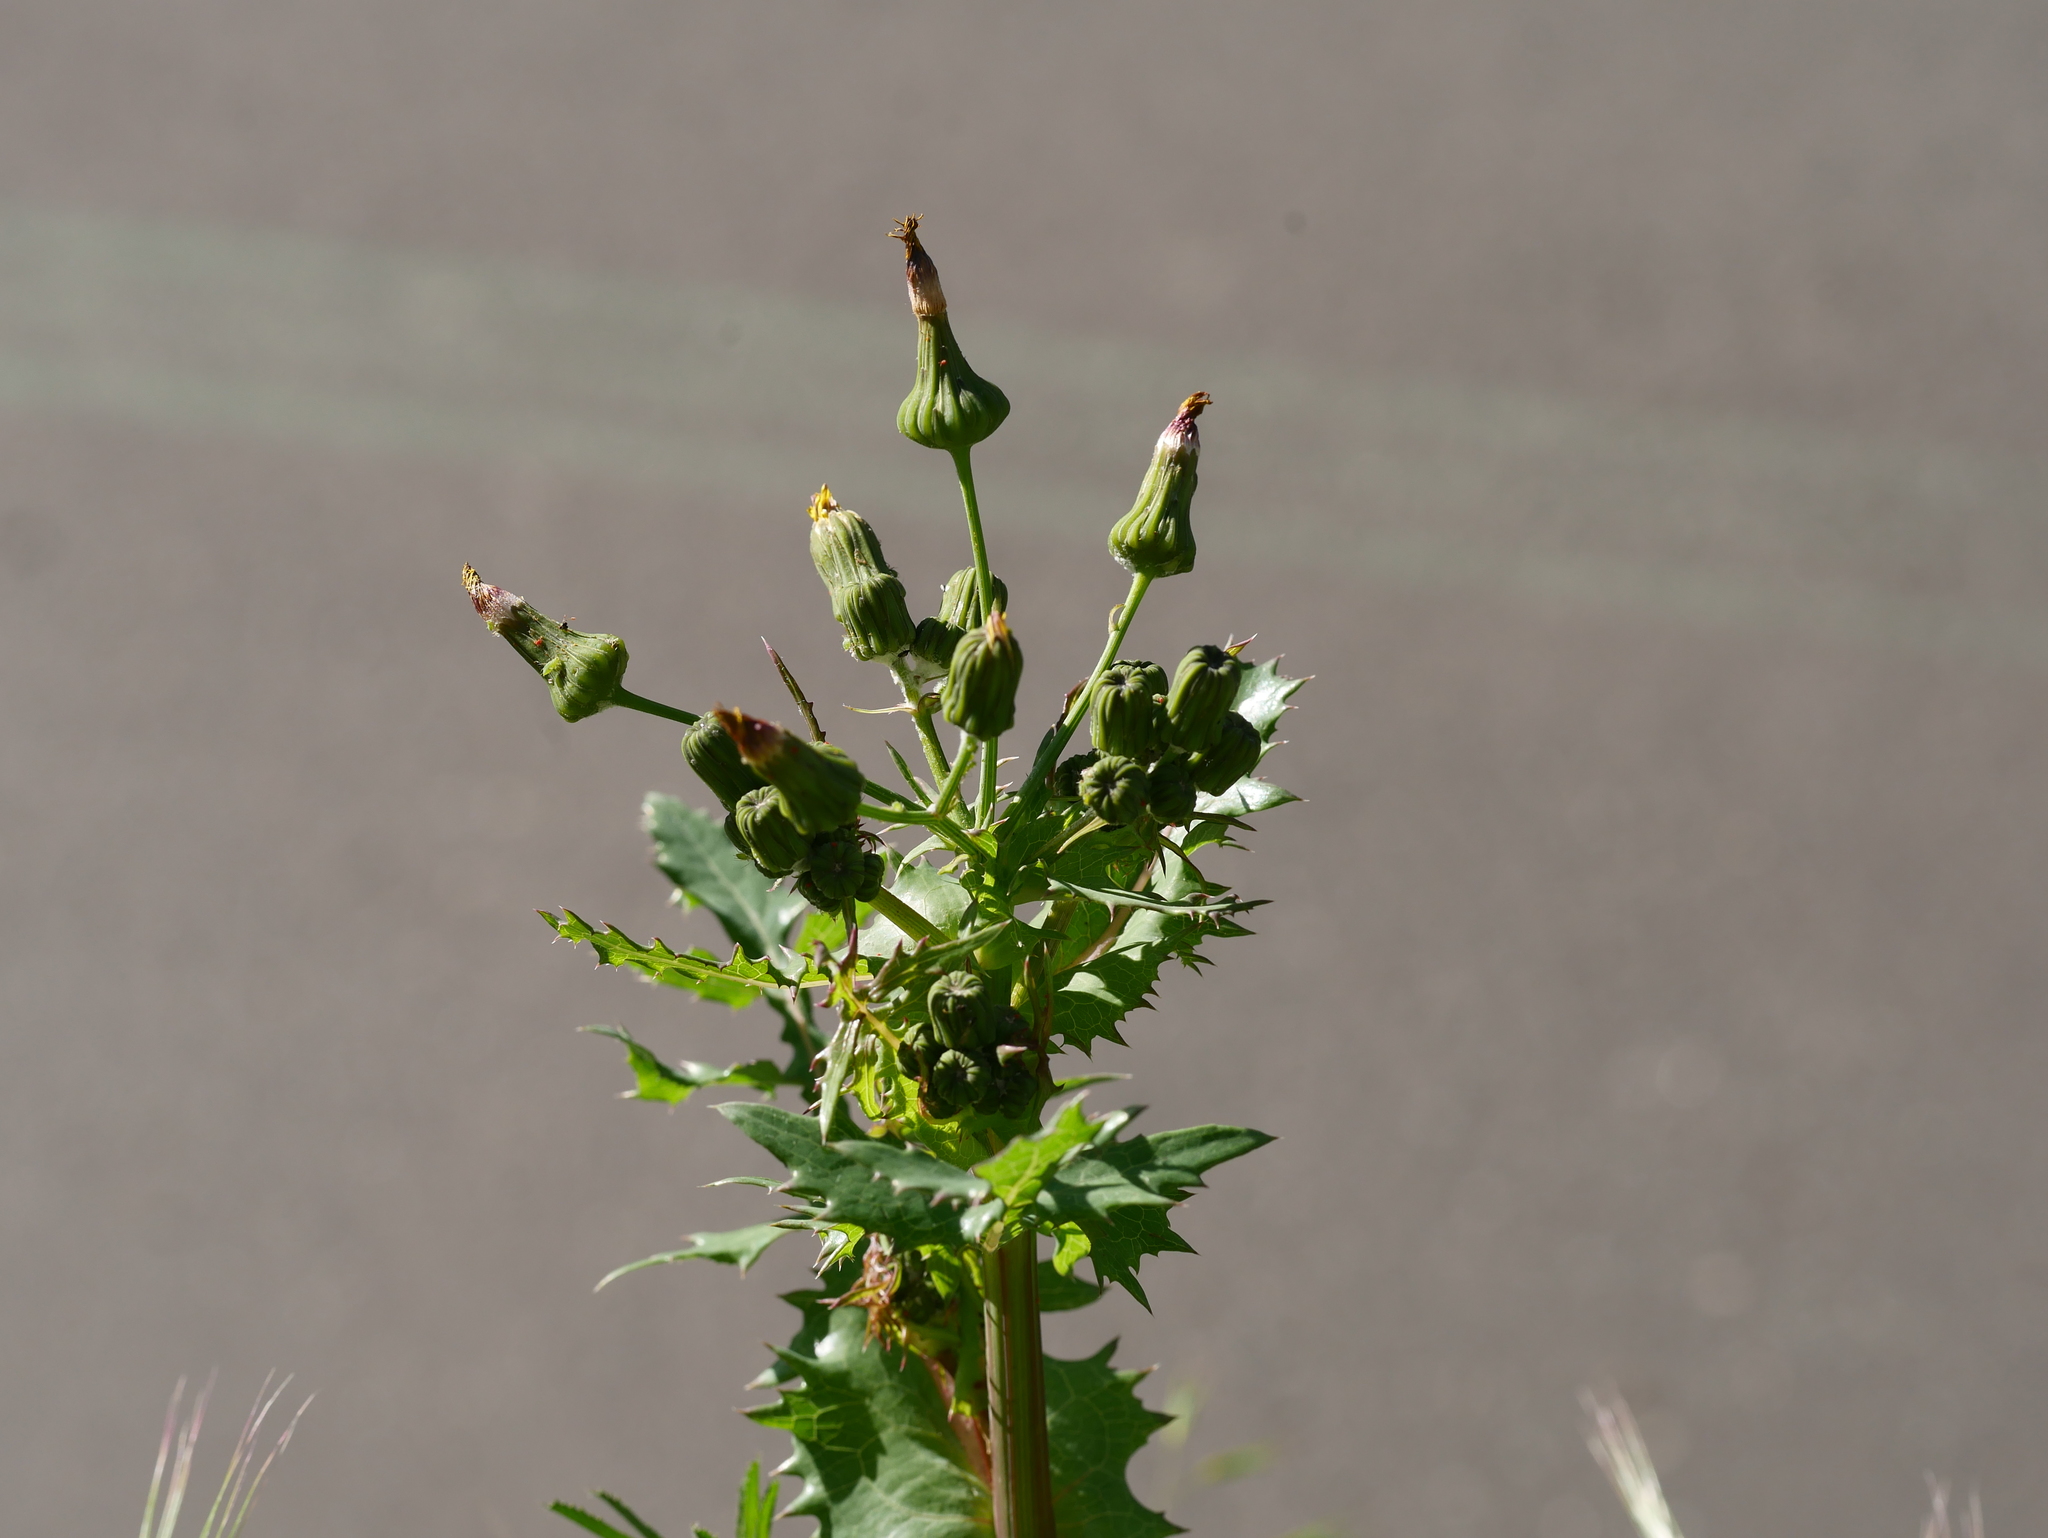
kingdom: Plantae
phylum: Tracheophyta
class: Magnoliopsida
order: Asterales
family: Asteraceae
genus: Sonchus
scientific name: Sonchus asper
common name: Prickly sow-thistle
